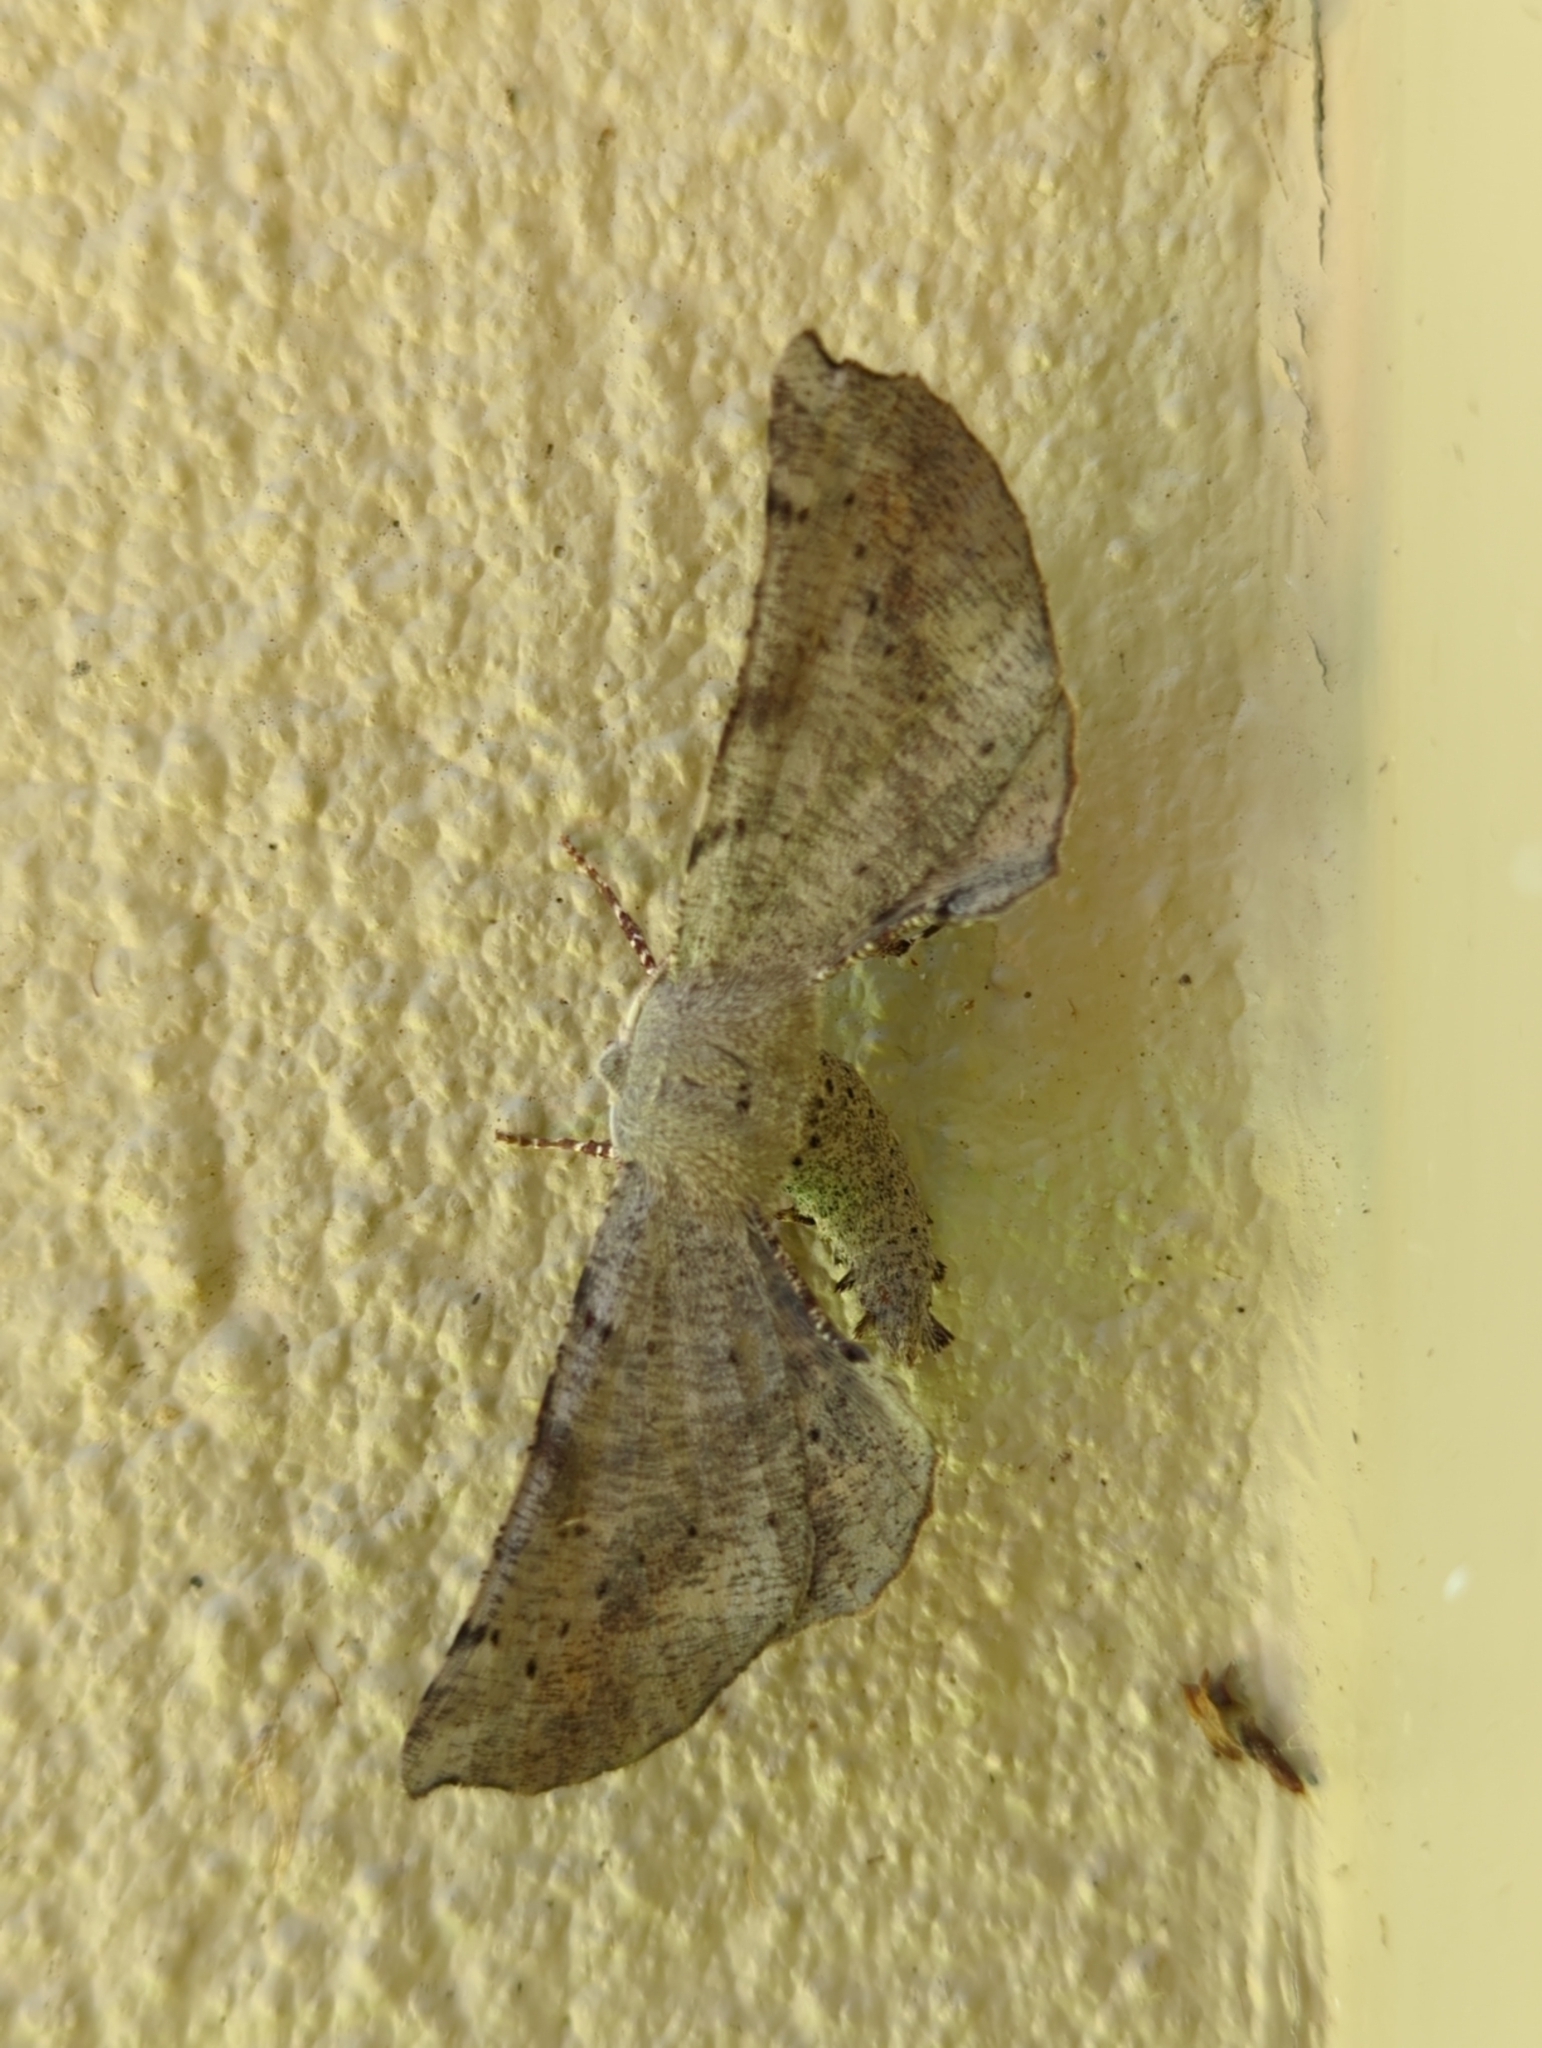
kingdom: Animalia
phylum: Arthropoda
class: Insecta
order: Lepidoptera
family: Geometridae
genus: Circopetes
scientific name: Circopetes obtusata
